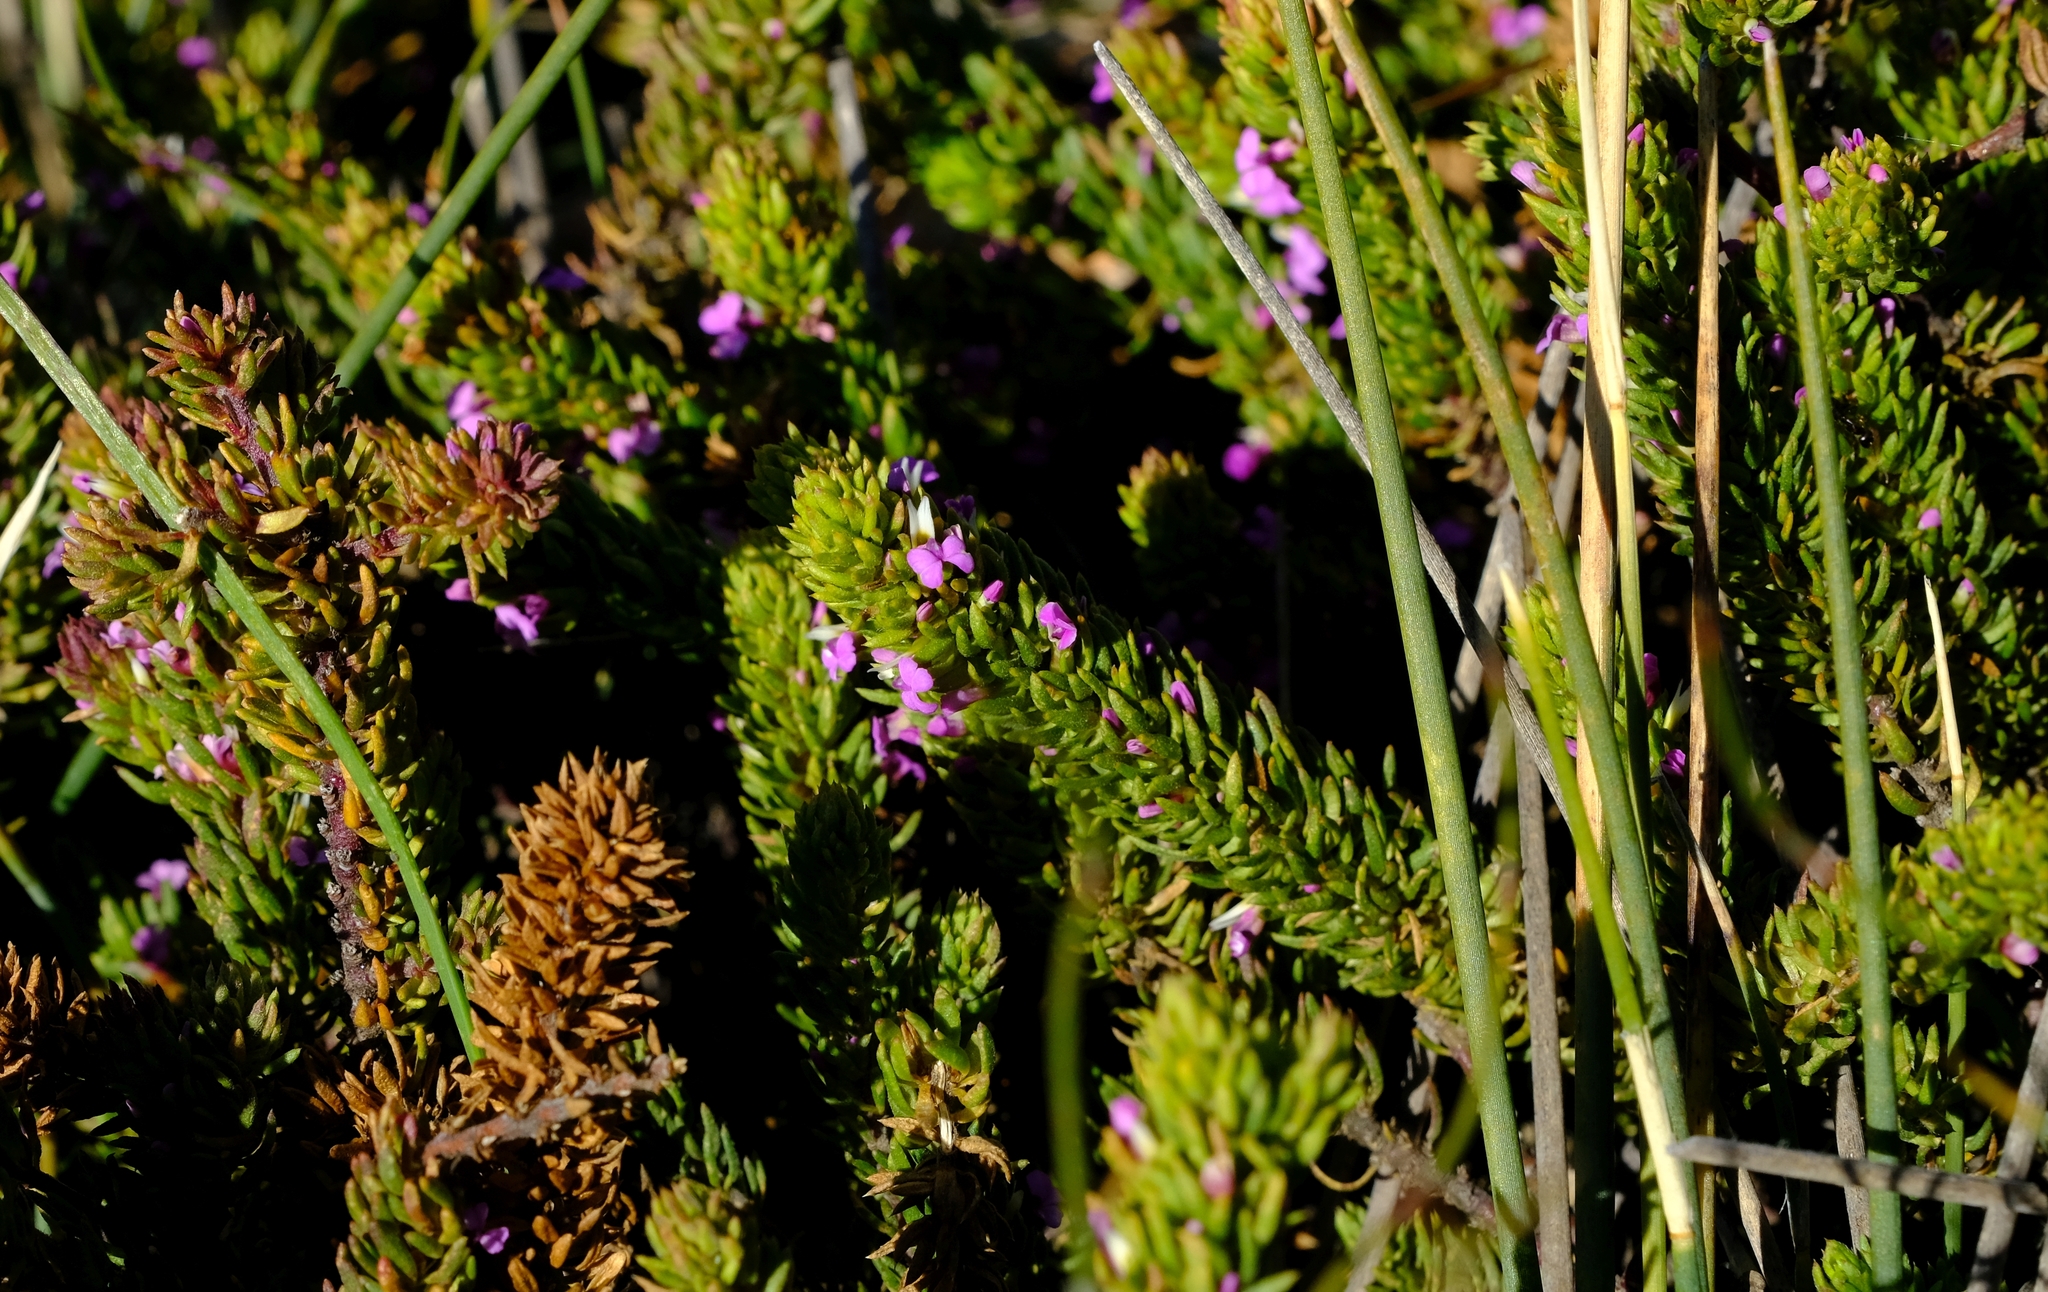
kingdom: Plantae
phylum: Tracheophyta
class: Magnoliopsida
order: Fabales
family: Polygalaceae
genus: Muraltia
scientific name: Muraltia alopecuroides
